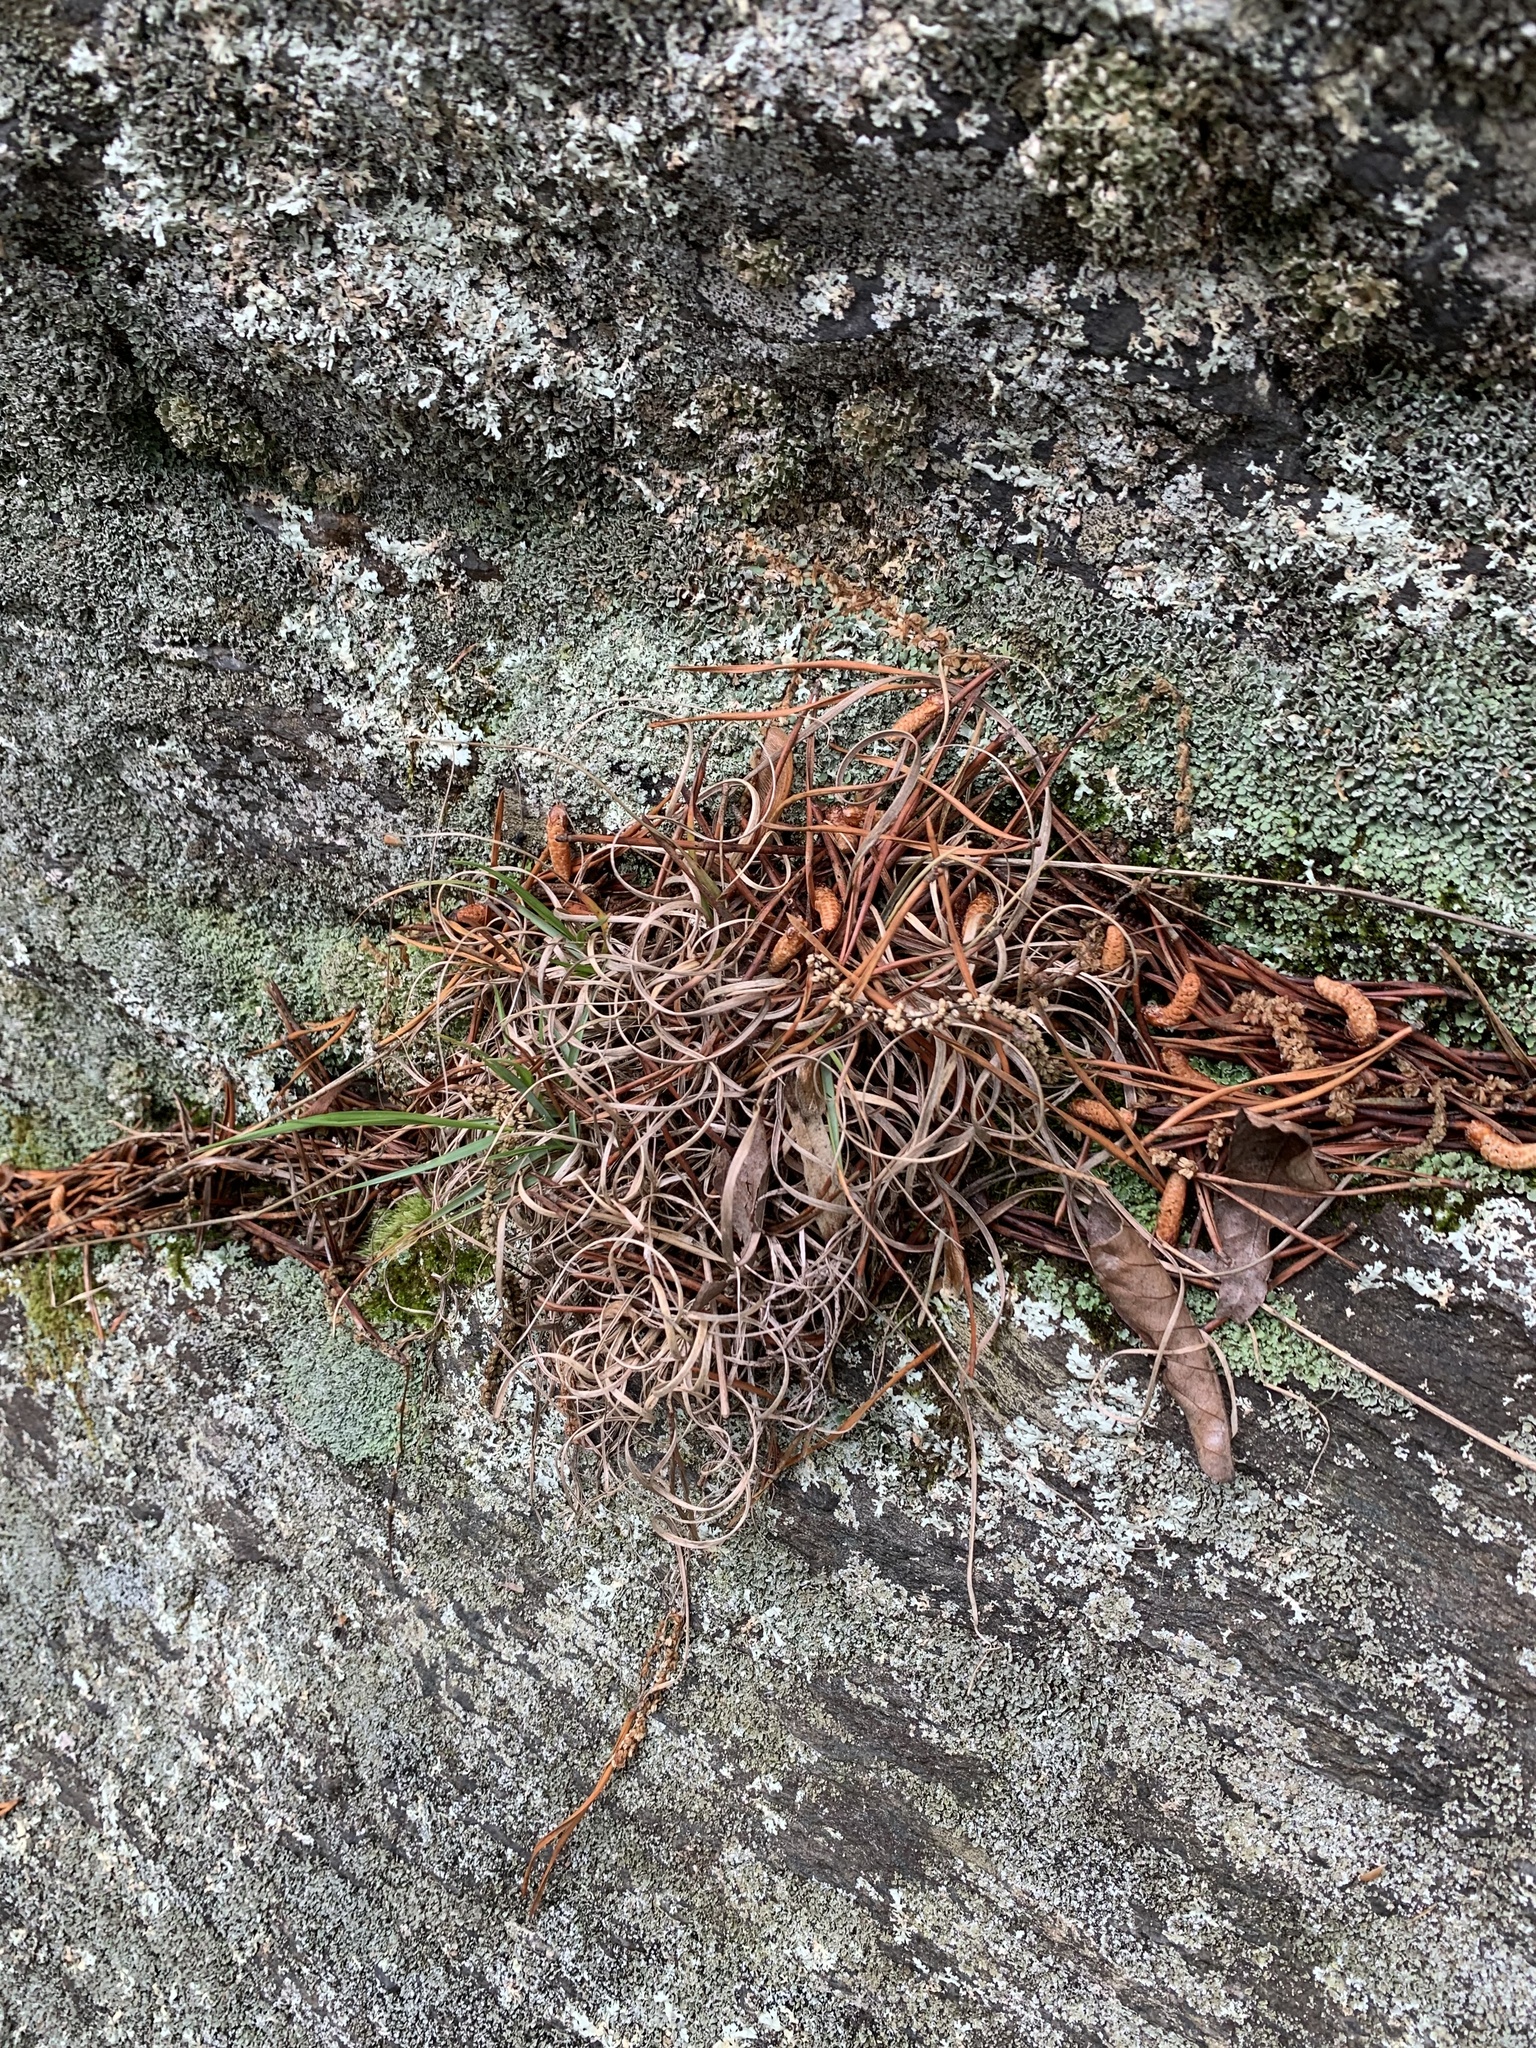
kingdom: Plantae
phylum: Tracheophyta
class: Liliopsida
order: Poales
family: Poaceae
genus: Danthonia
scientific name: Danthonia spicata
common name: Common wild oatgrass
